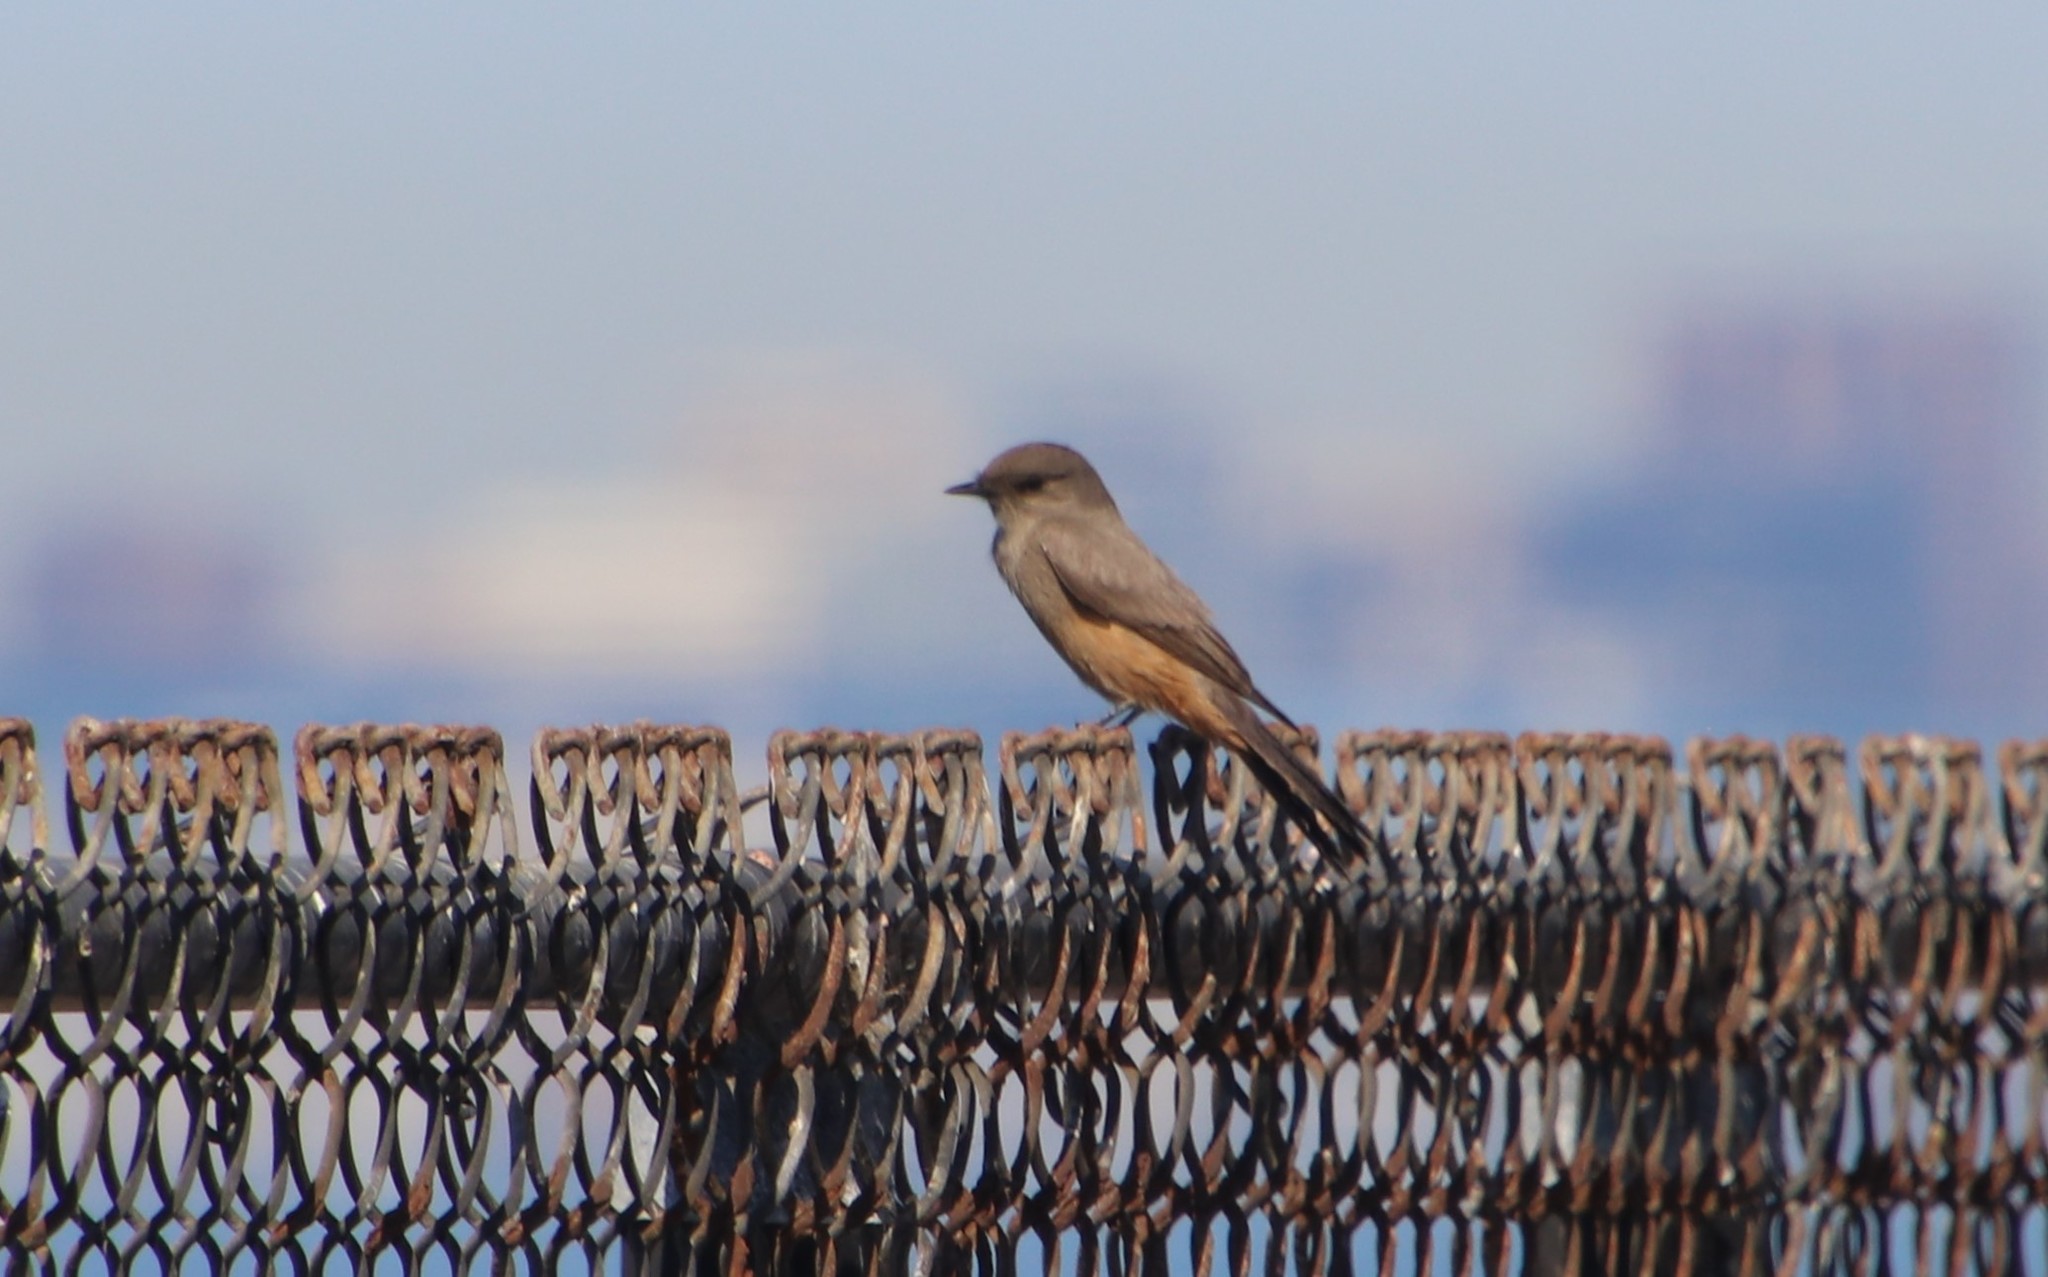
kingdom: Animalia
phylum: Chordata
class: Aves
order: Passeriformes
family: Tyrannidae
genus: Sayornis
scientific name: Sayornis saya
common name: Say's phoebe
